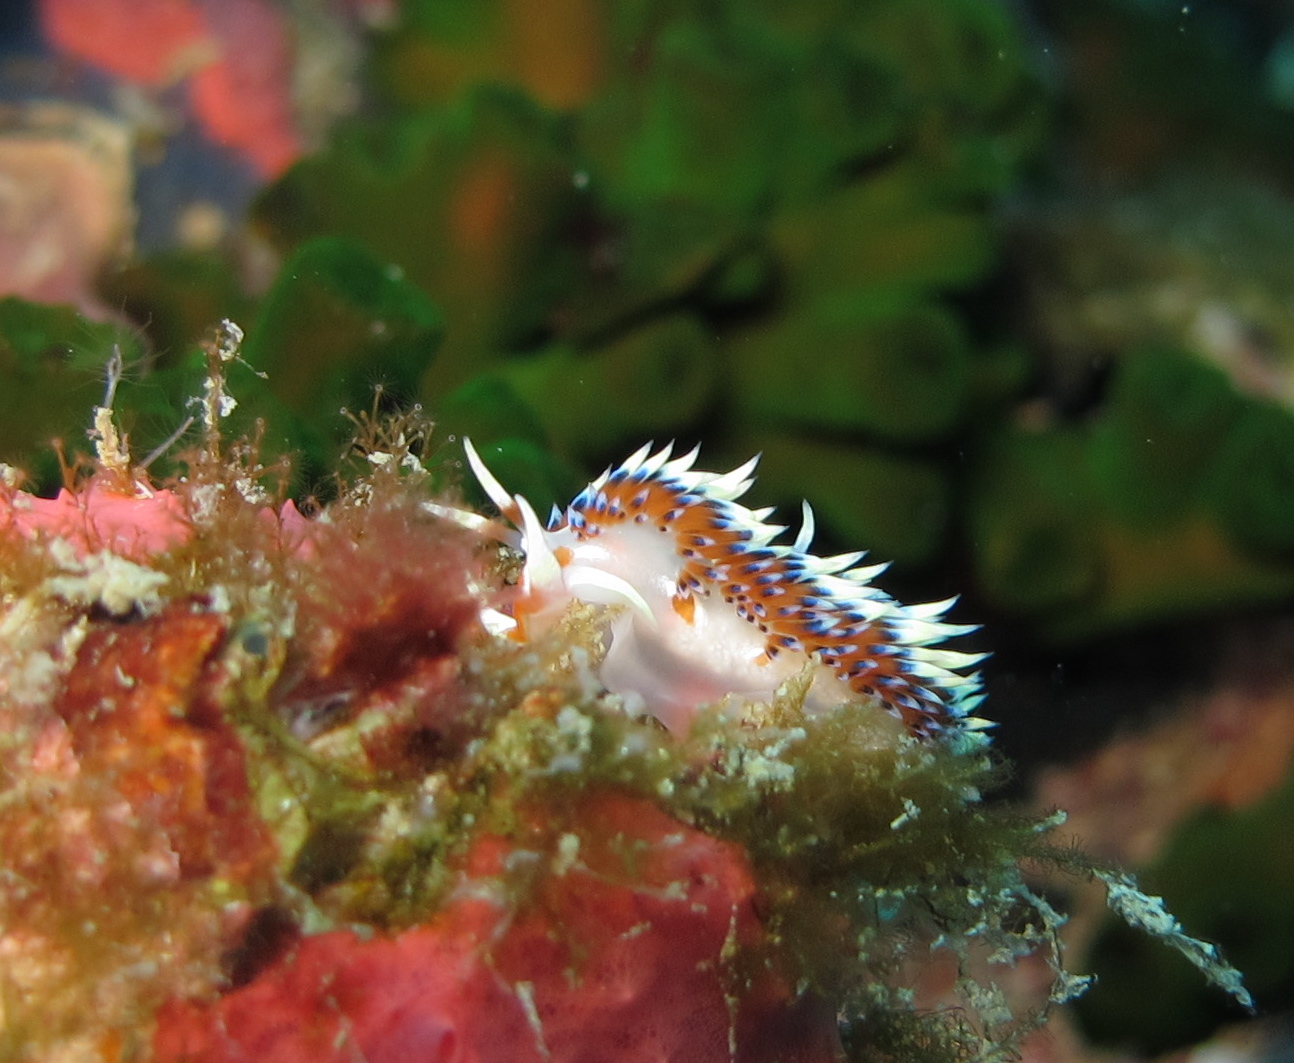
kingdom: Animalia
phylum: Mollusca
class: Gastropoda
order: Nudibranchia
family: Facelinidae
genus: Caloria
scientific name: Caloria indica
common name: Sea slug
